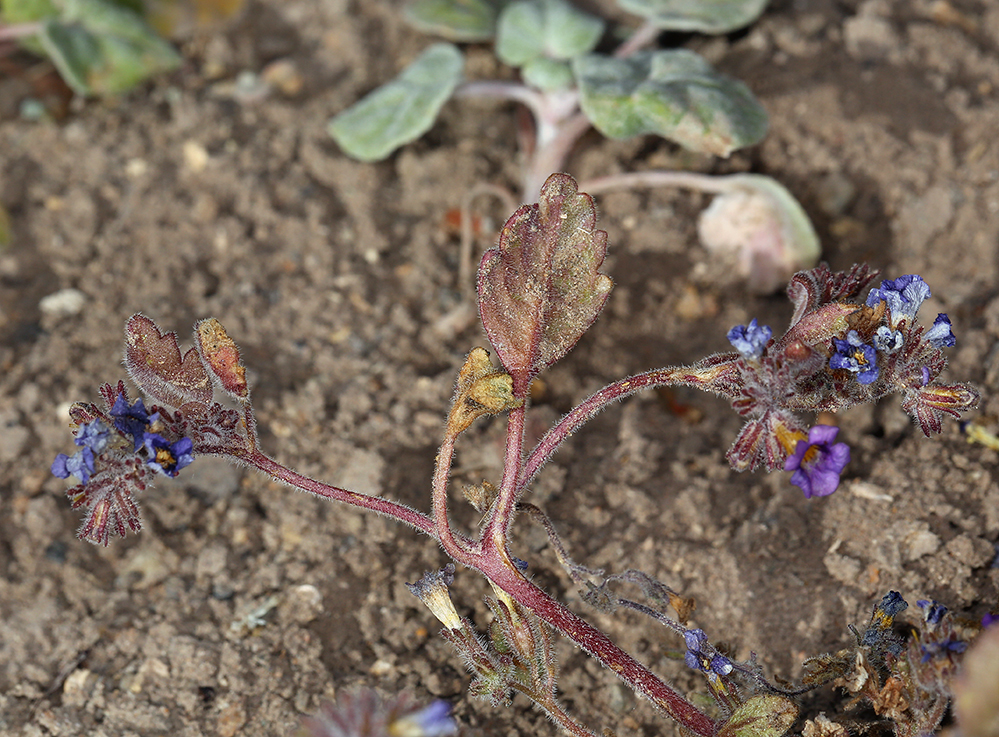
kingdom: Plantae
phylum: Tracheophyta
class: Magnoliopsida
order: Boraginales
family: Hydrophyllaceae
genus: Phacelia
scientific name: Phacelia gymnoclada
